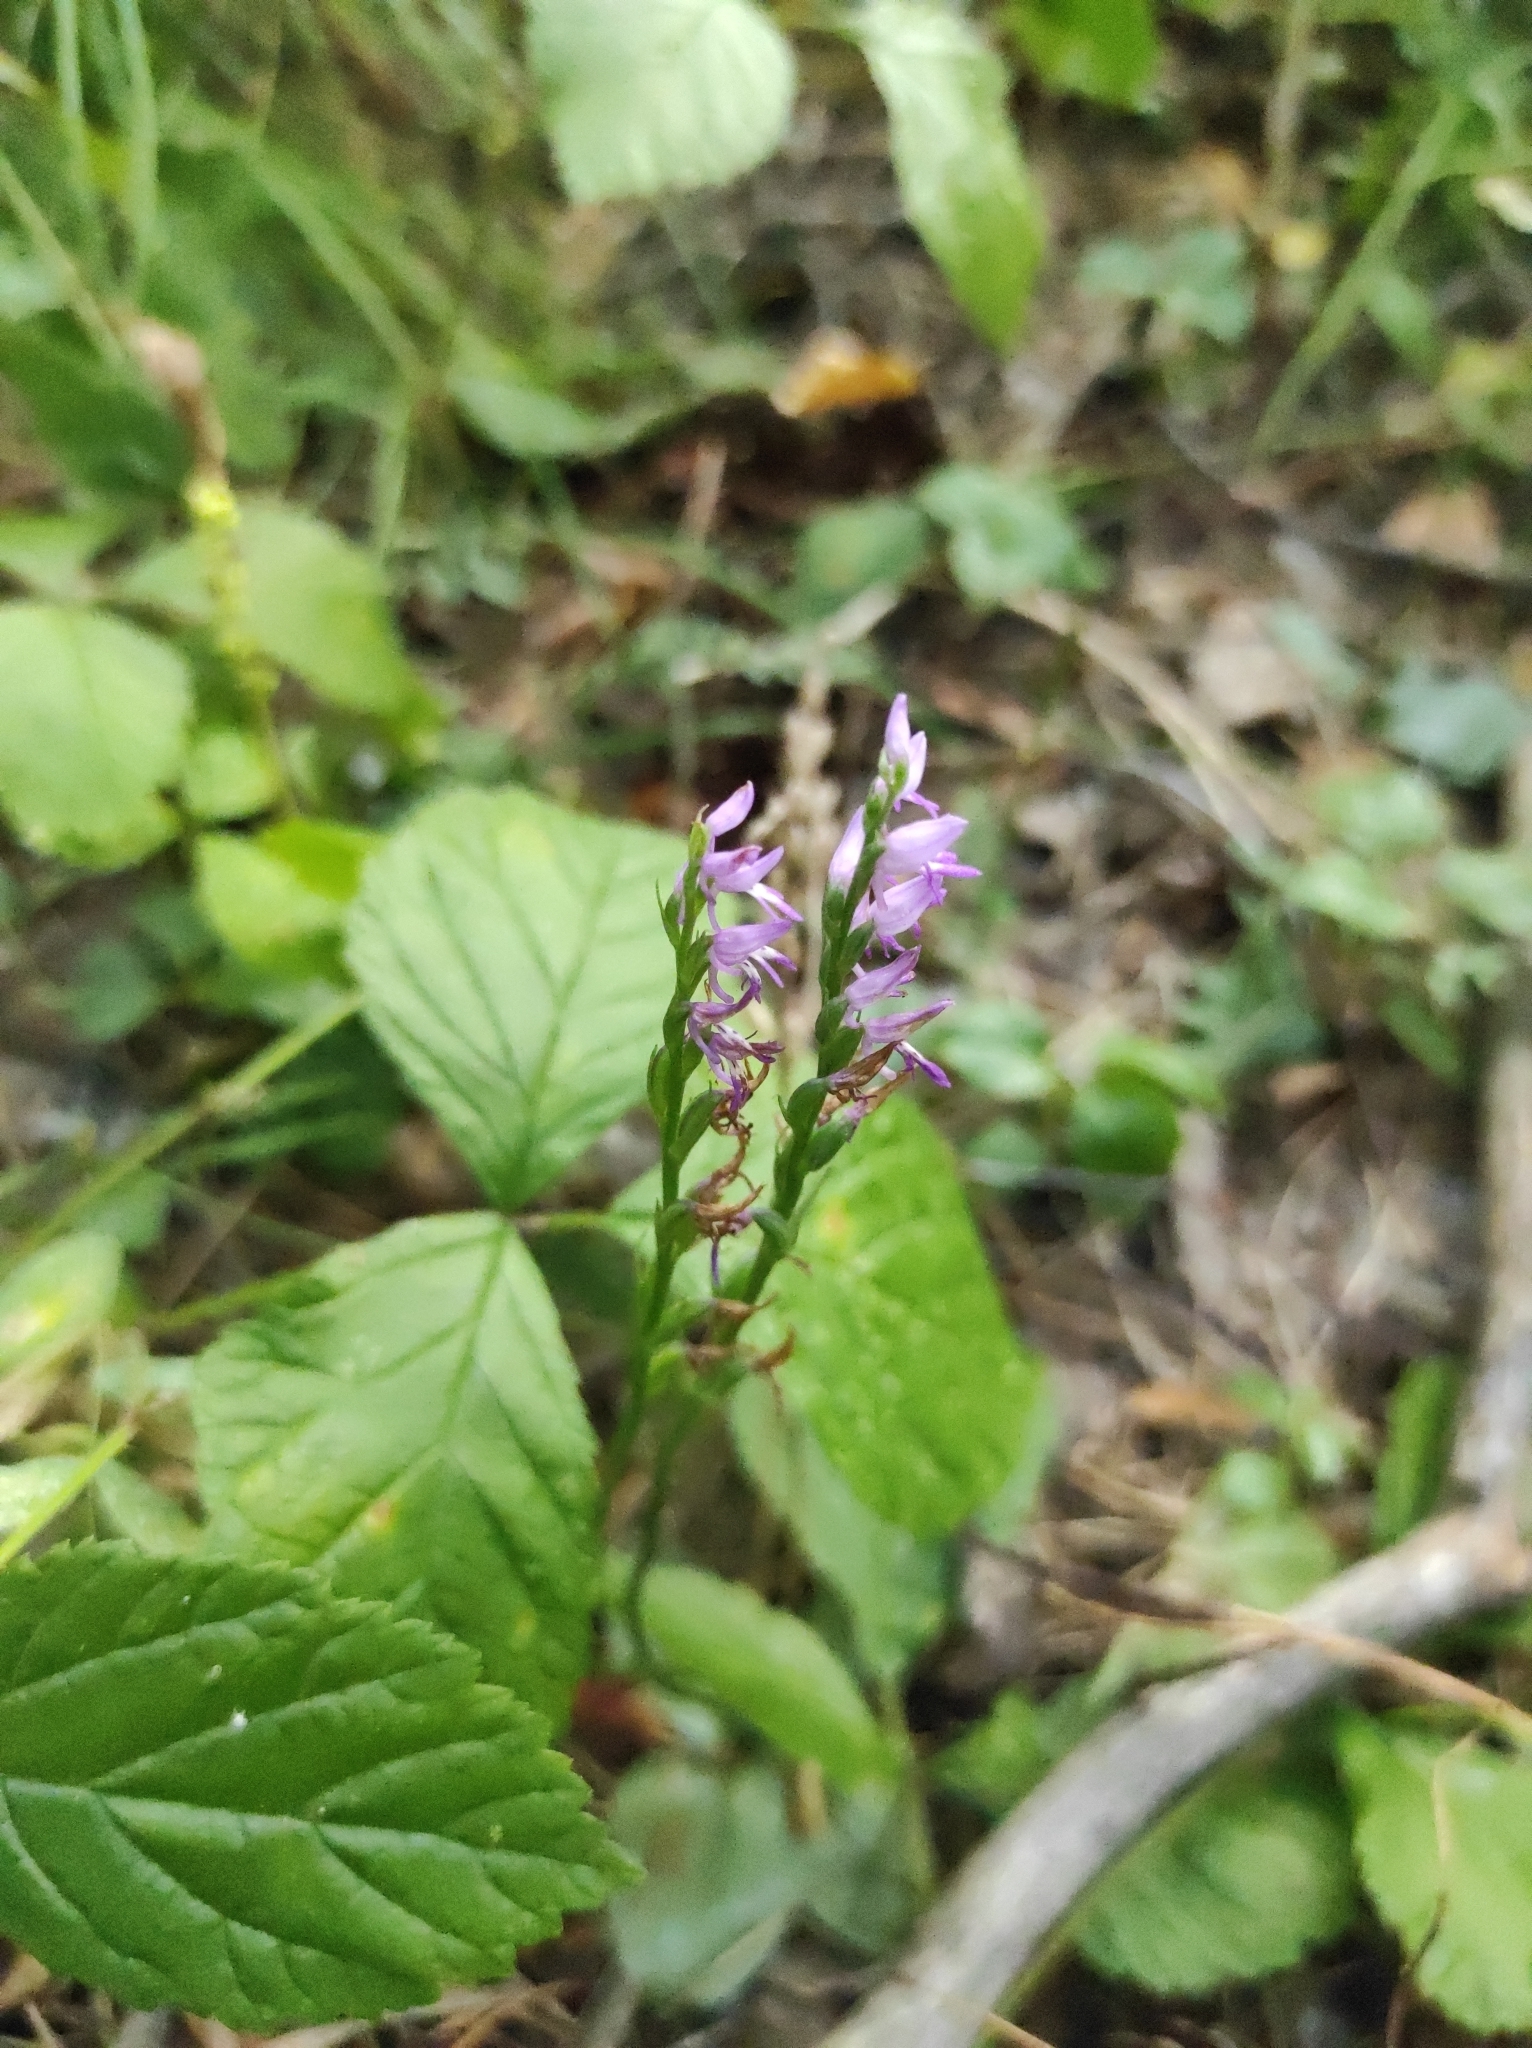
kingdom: Plantae
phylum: Tracheophyta
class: Liliopsida
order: Asparagales
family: Orchidaceae
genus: Hemipilia
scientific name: Hemipilia cucullata
